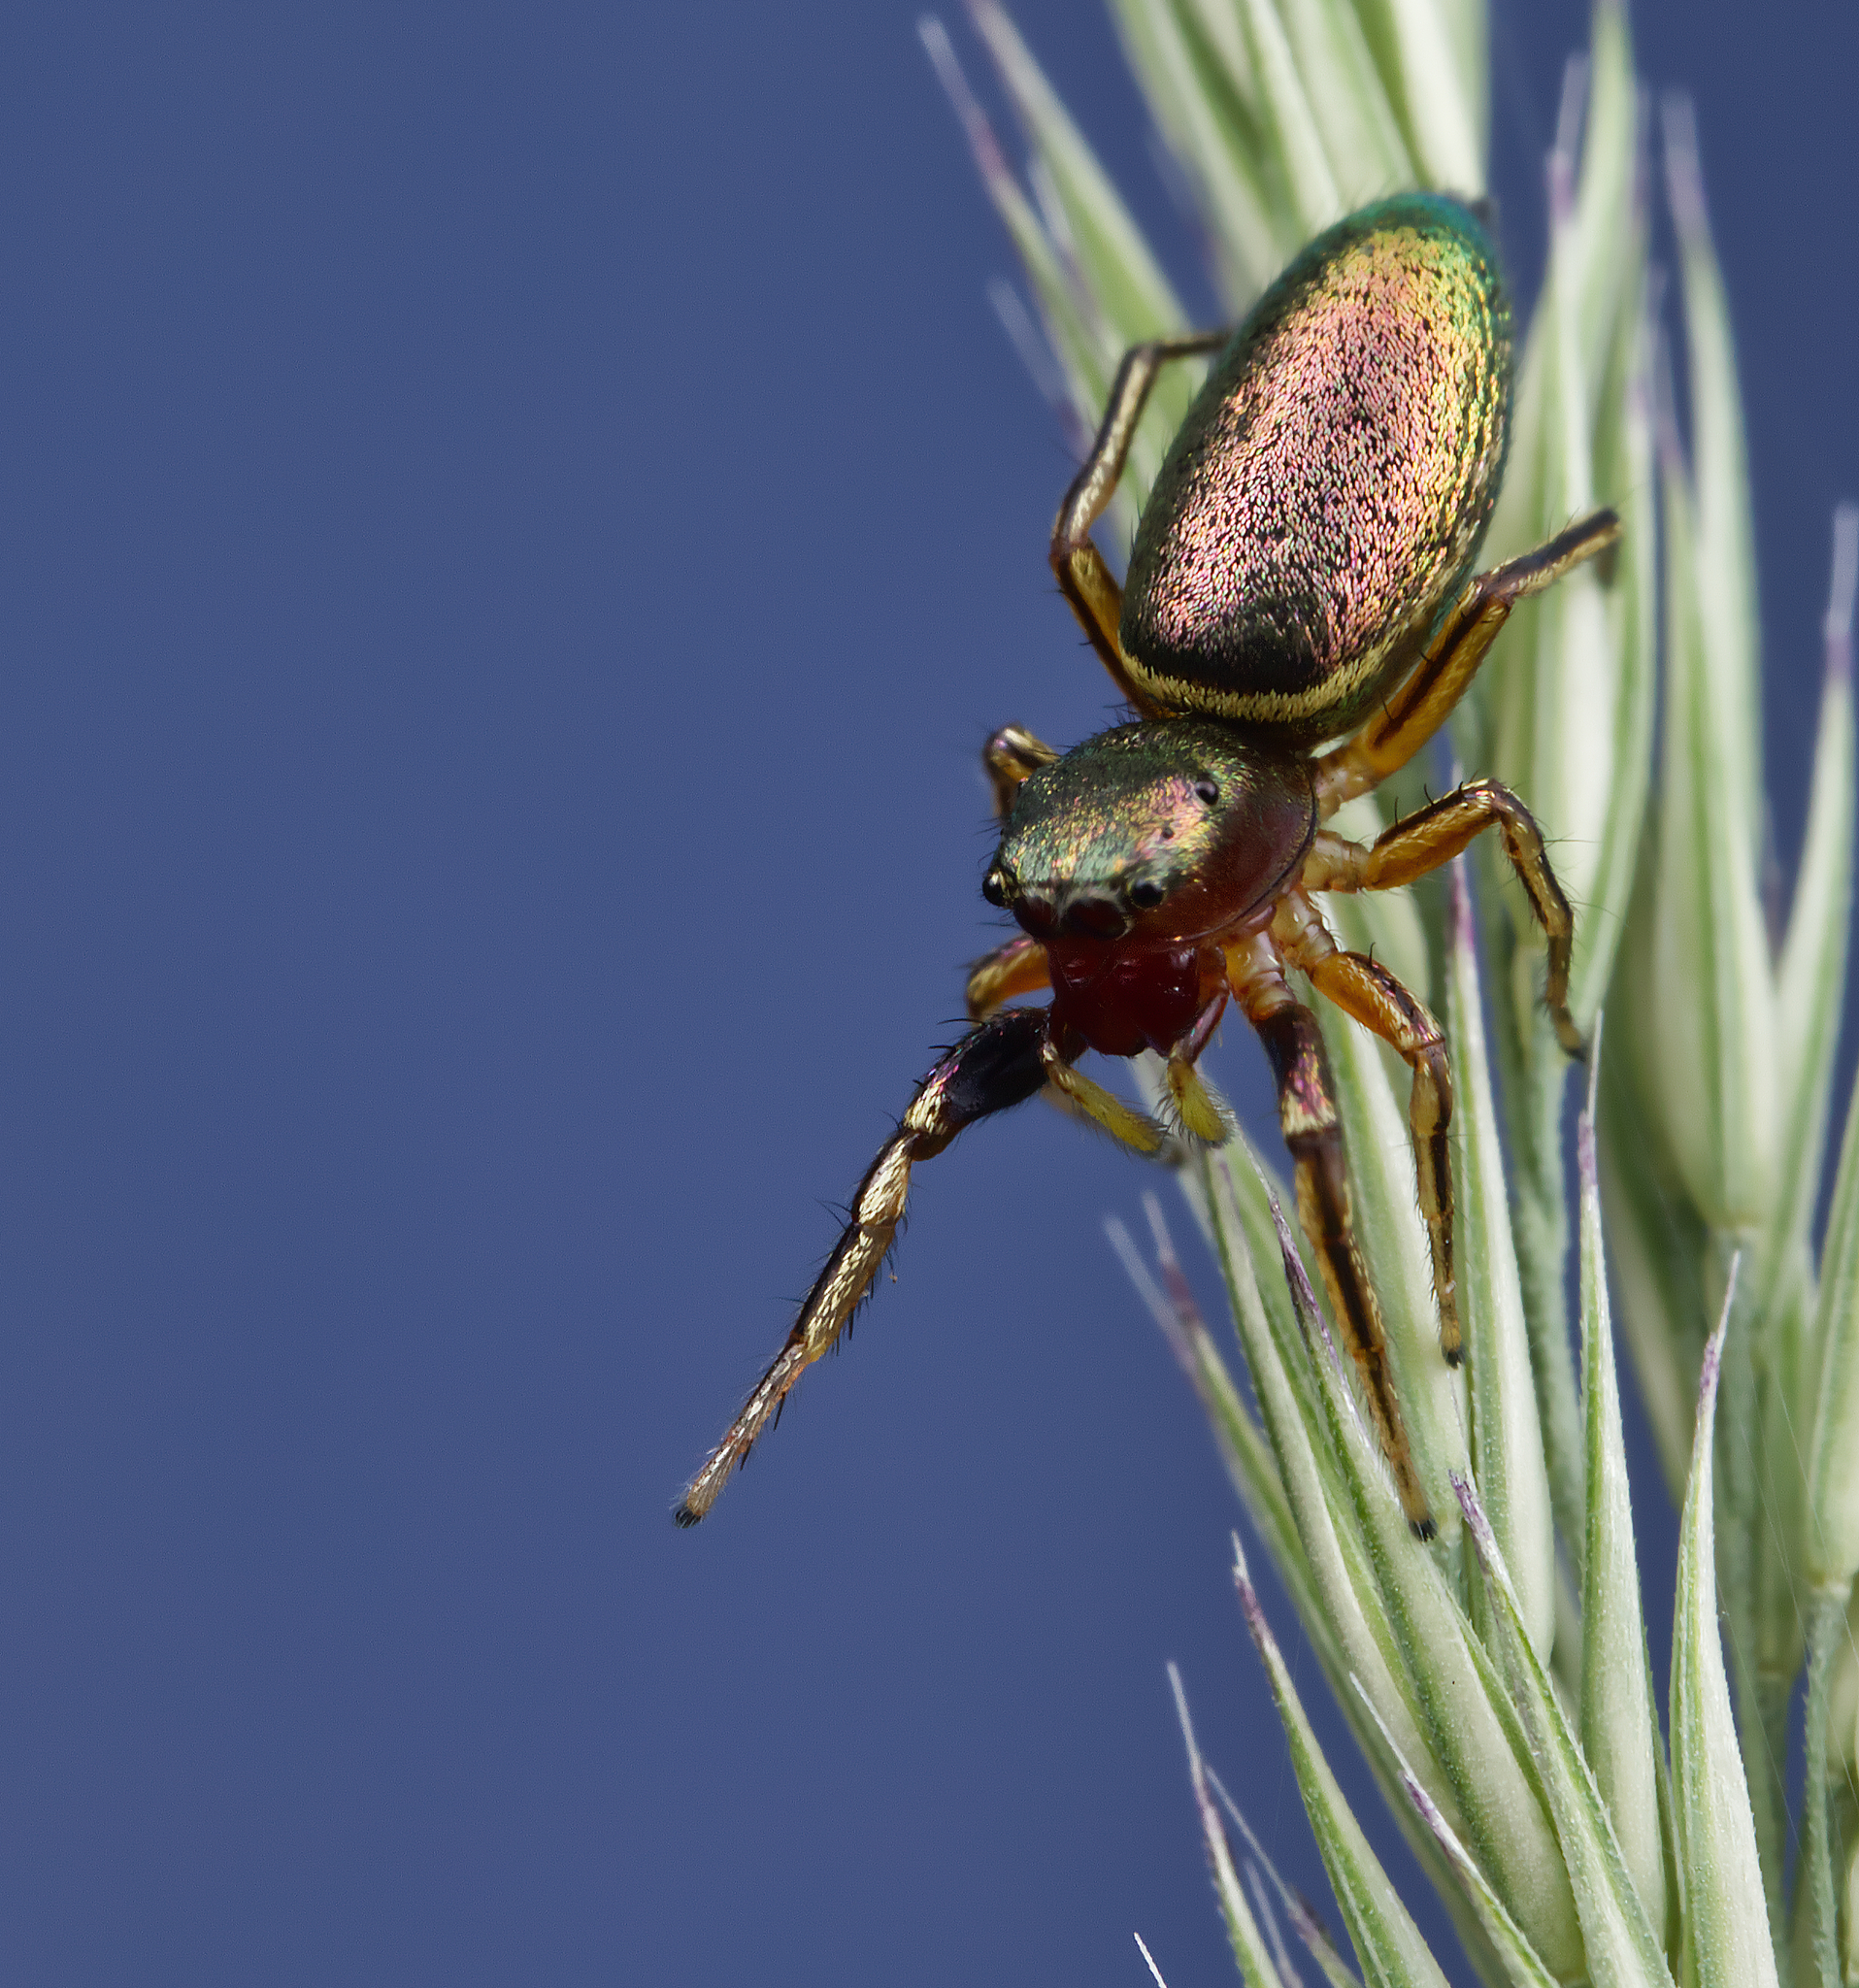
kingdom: Animalia
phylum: Arthropoda
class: Arachnida
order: Araneae
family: Salticidae
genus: Tutelina
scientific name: Tutelina elegans
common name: Thin-spined jumping spider
